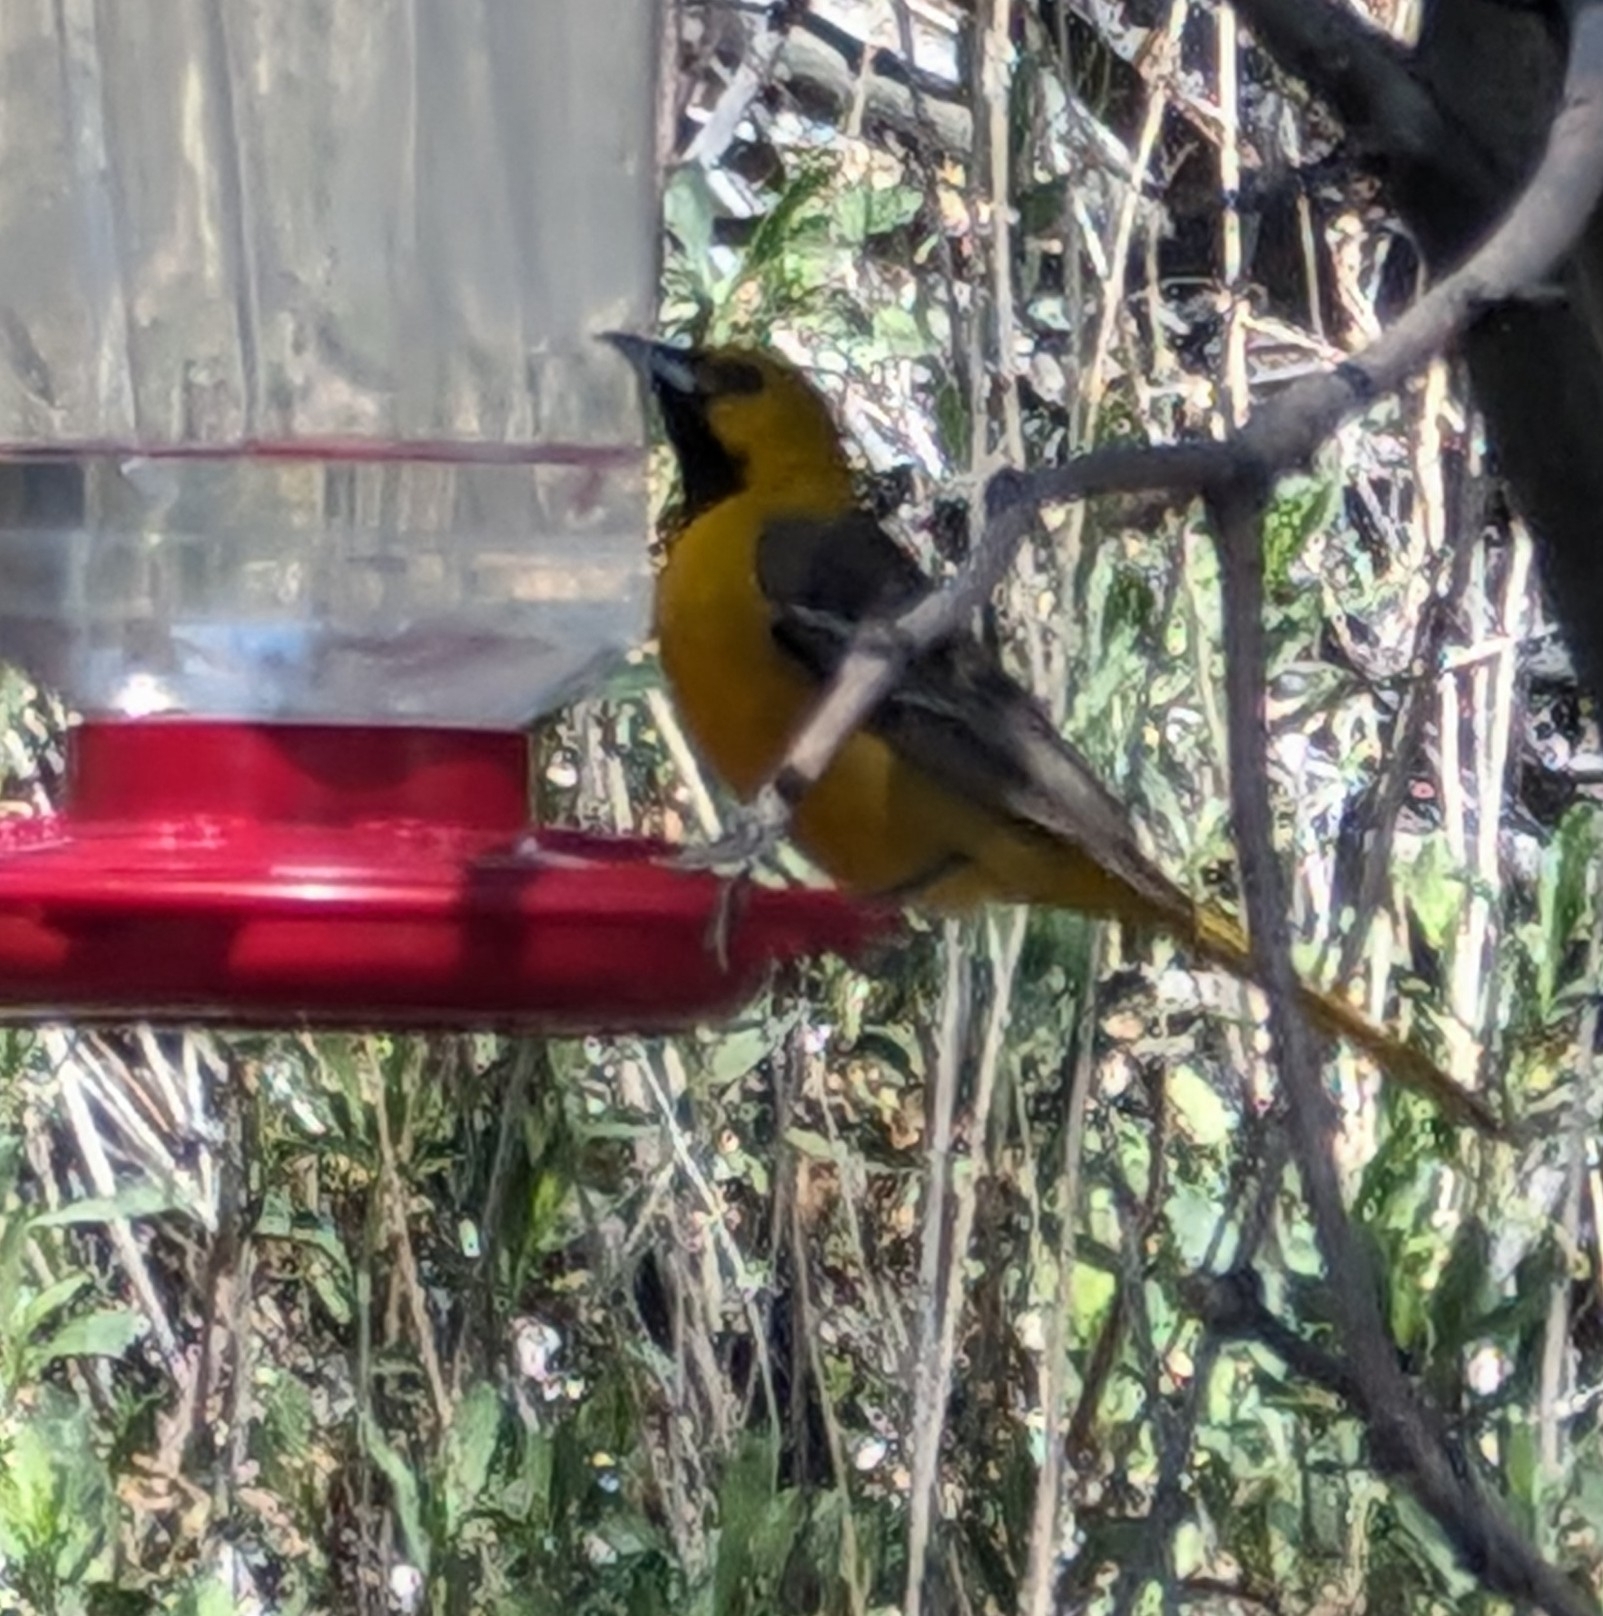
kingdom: Animalia
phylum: Chordata
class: Aves
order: Passeriformes
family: Icteridae
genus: Icterus
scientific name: Icterus cucullatus
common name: Hooded oriole
